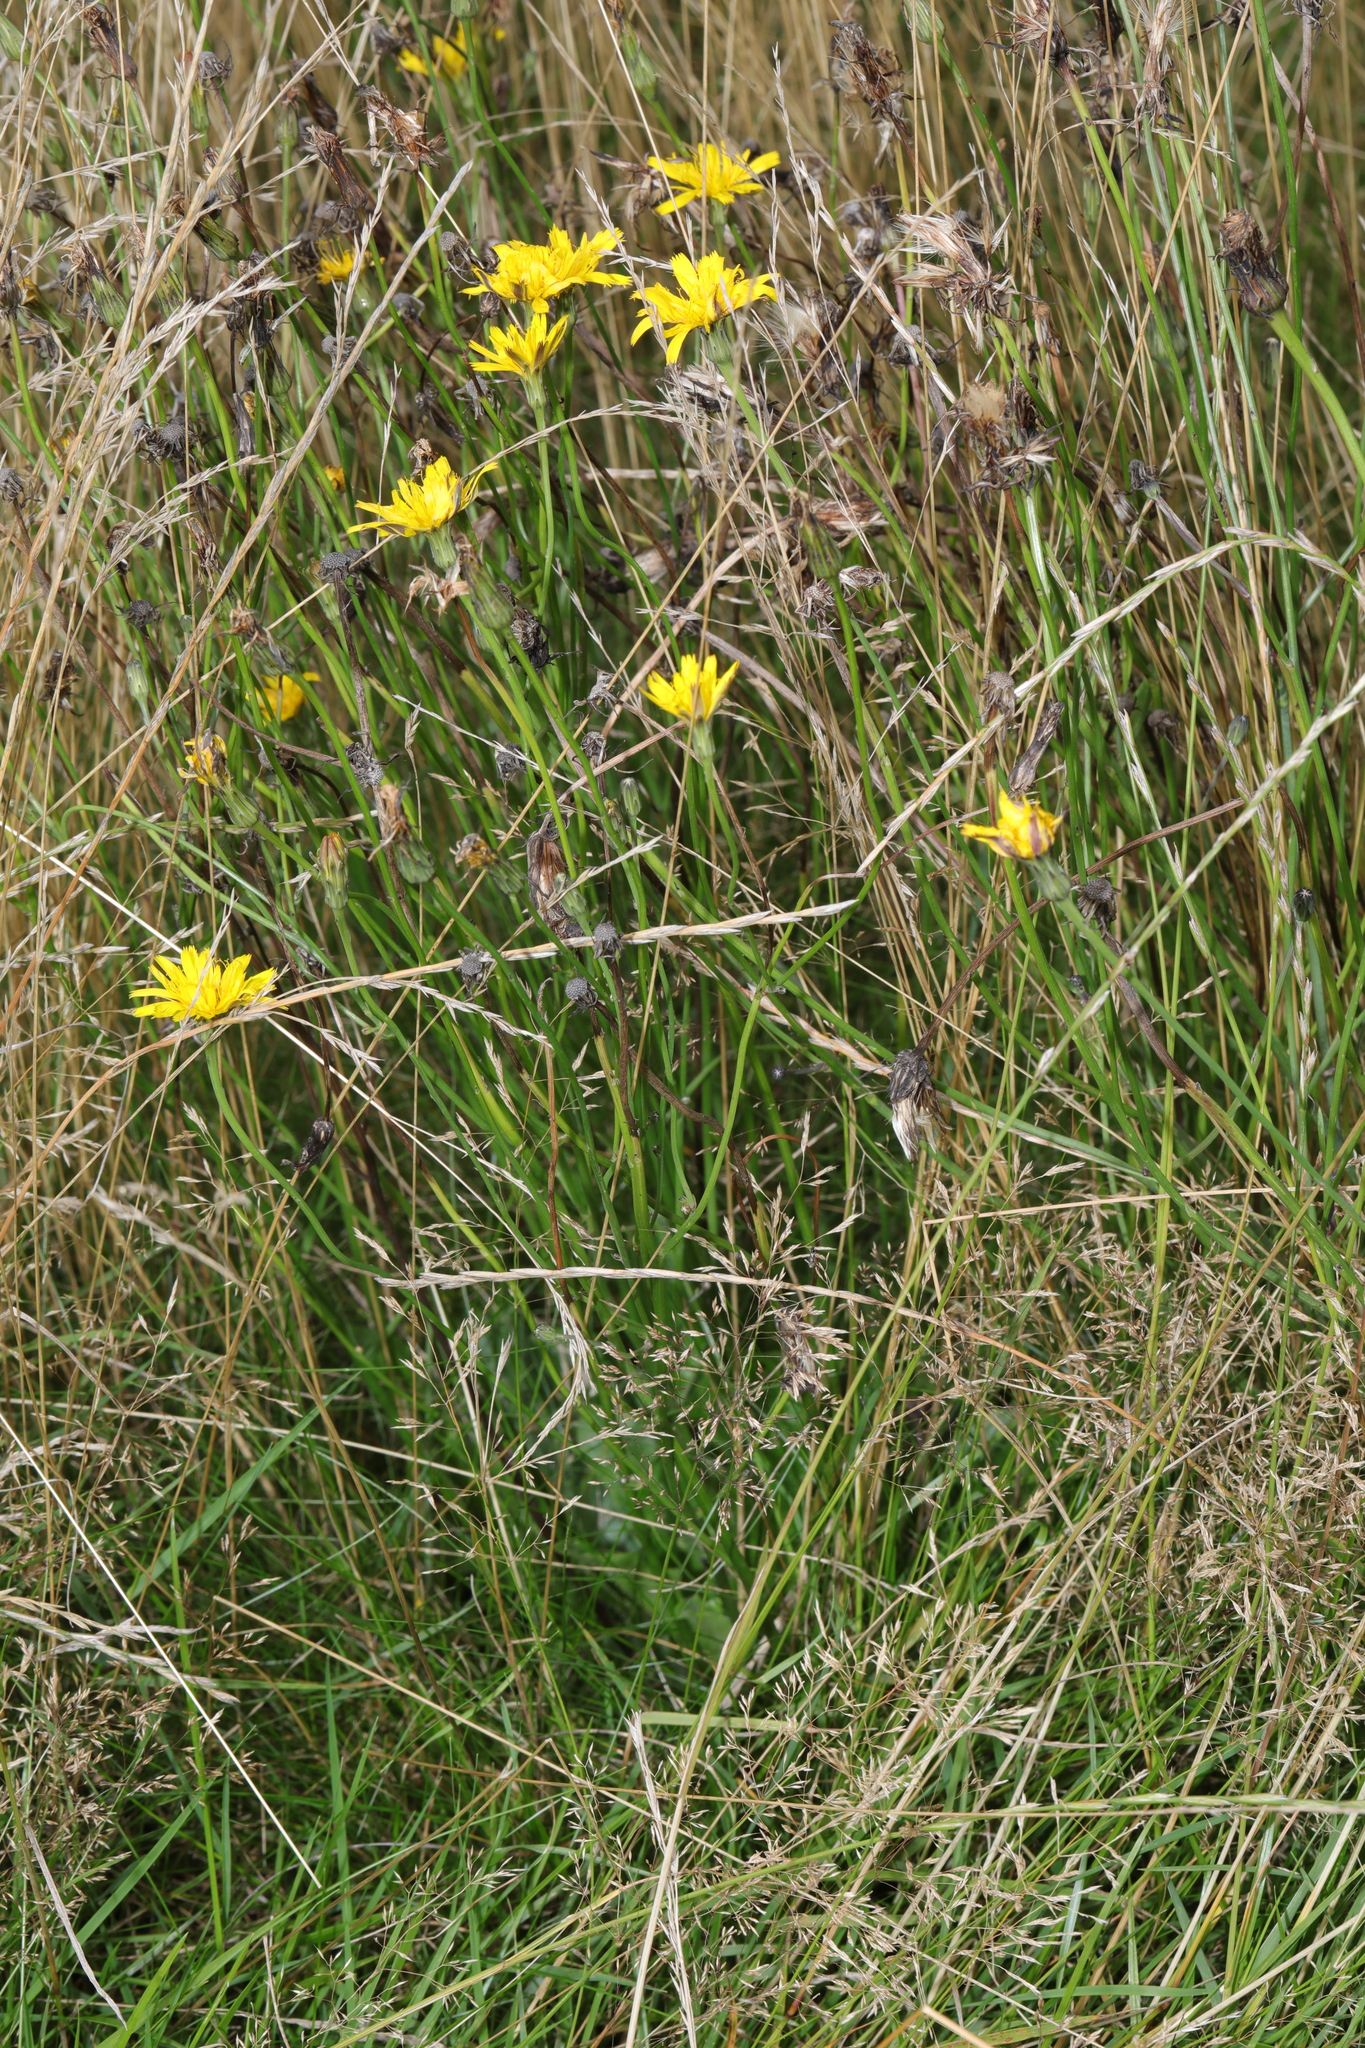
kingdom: Plantae
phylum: Tracheophyta
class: Magnoliopsida
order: Asterales
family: Asteraceae
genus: Hypochaeris
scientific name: Hypochaeris radicata
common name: Flatweed
